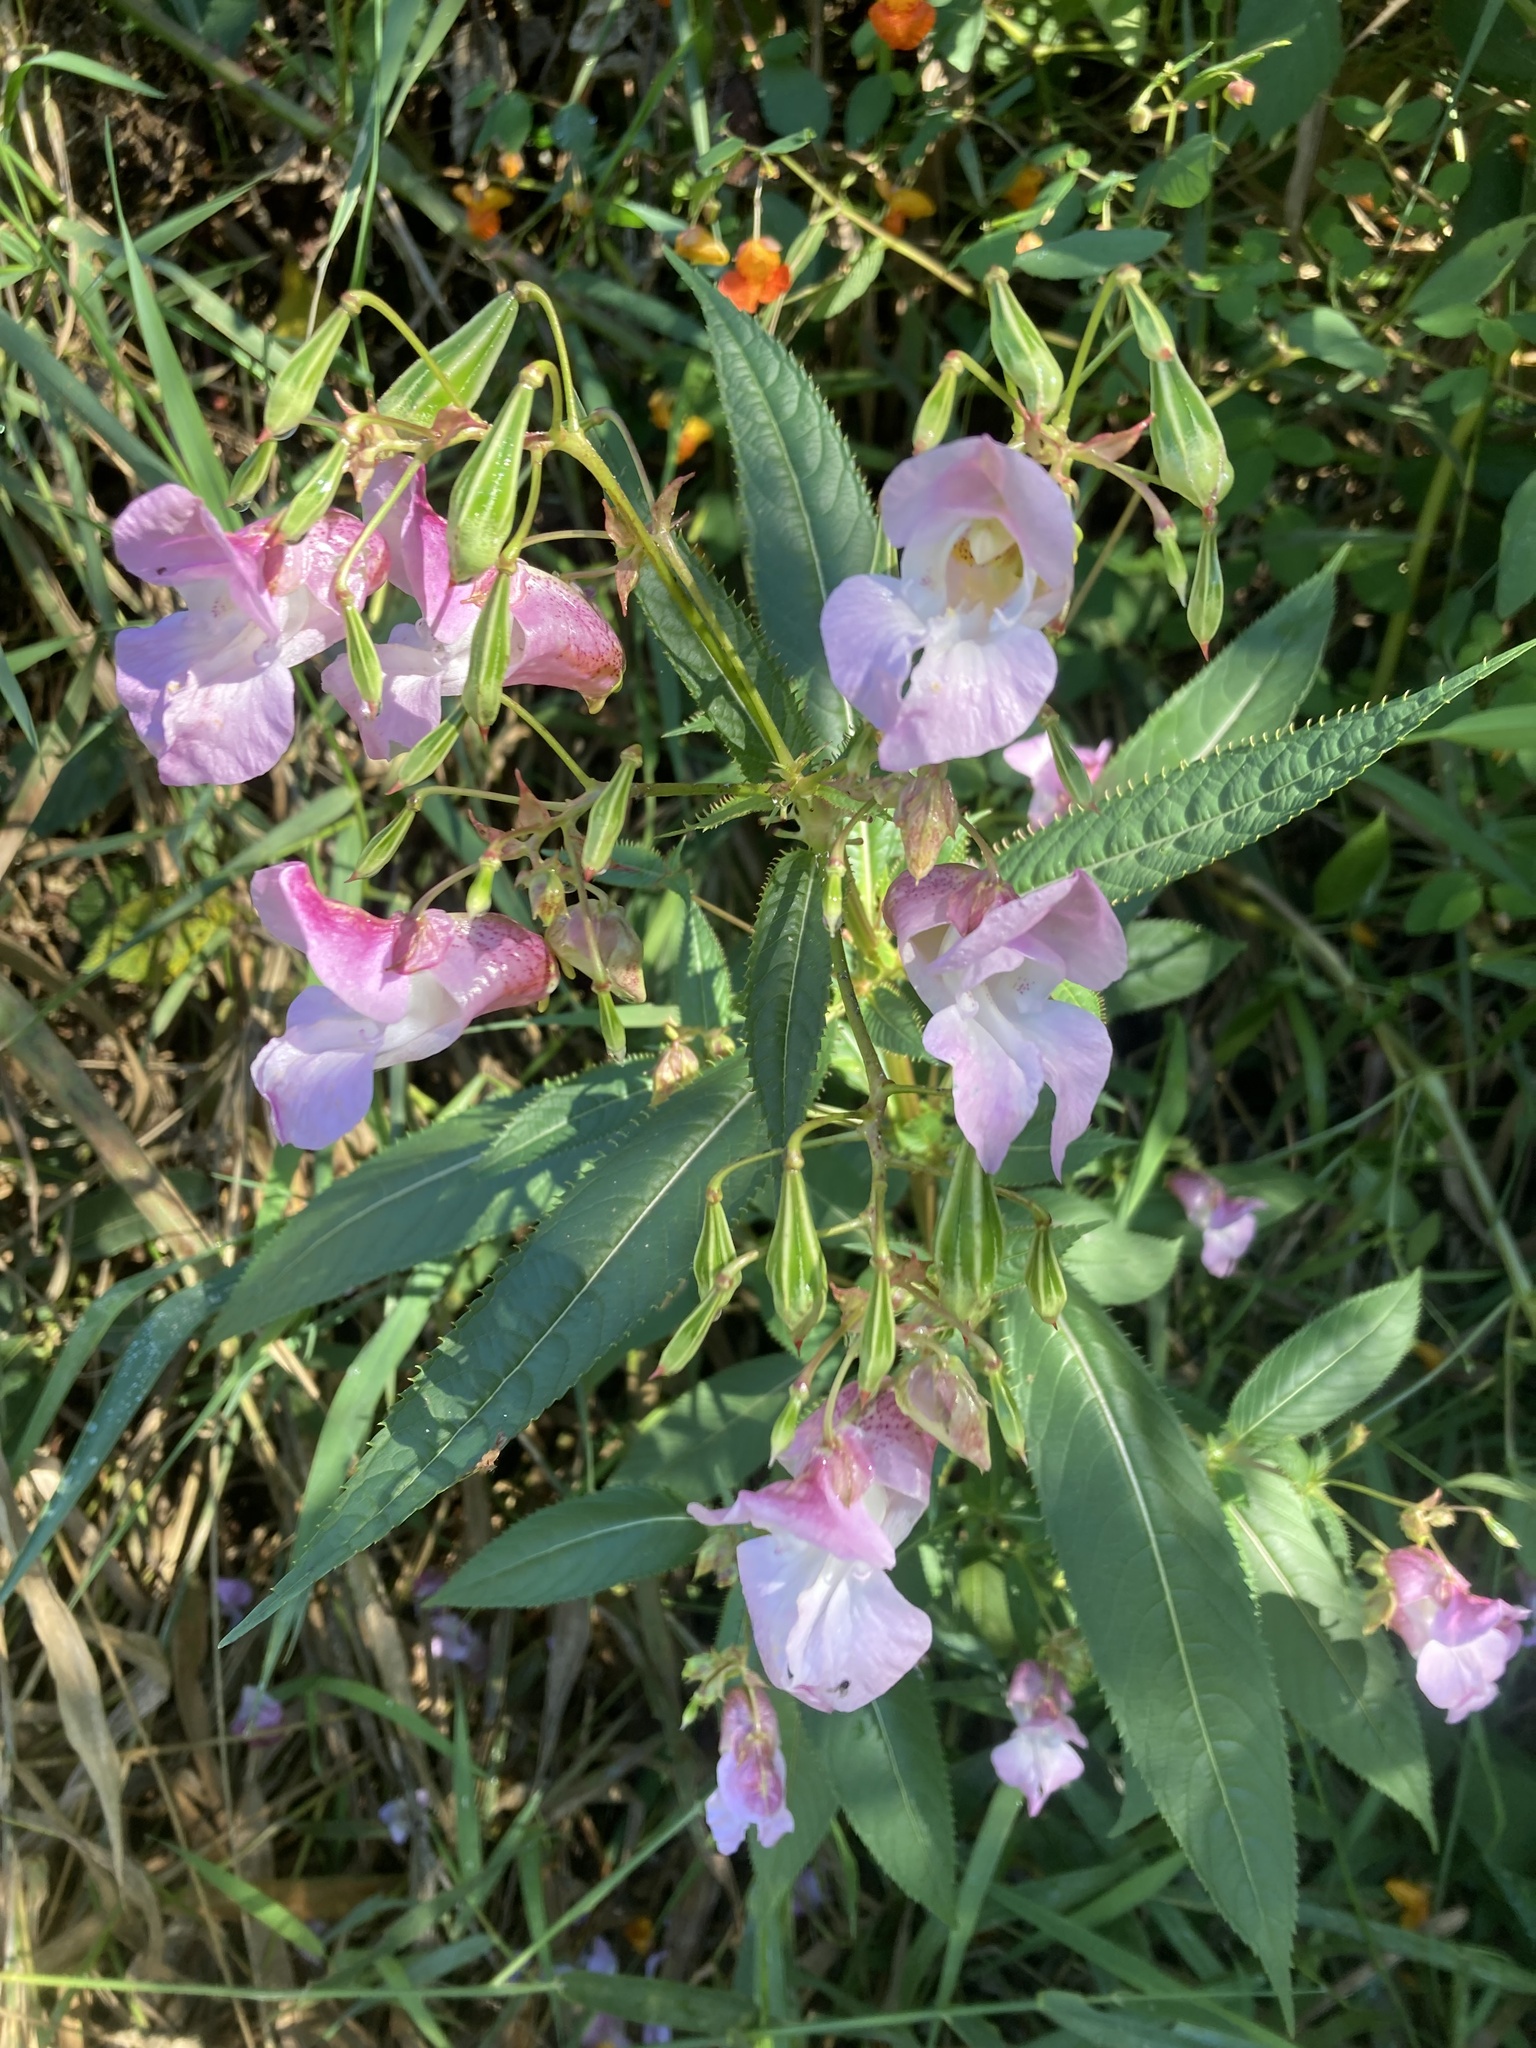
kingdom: Plantae
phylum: Tracheophyta
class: Magnoliopsida
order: Ericales
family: Balsaminaceae
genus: Impatiens
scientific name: Impatiens glandulifera
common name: Himalayan balsam
